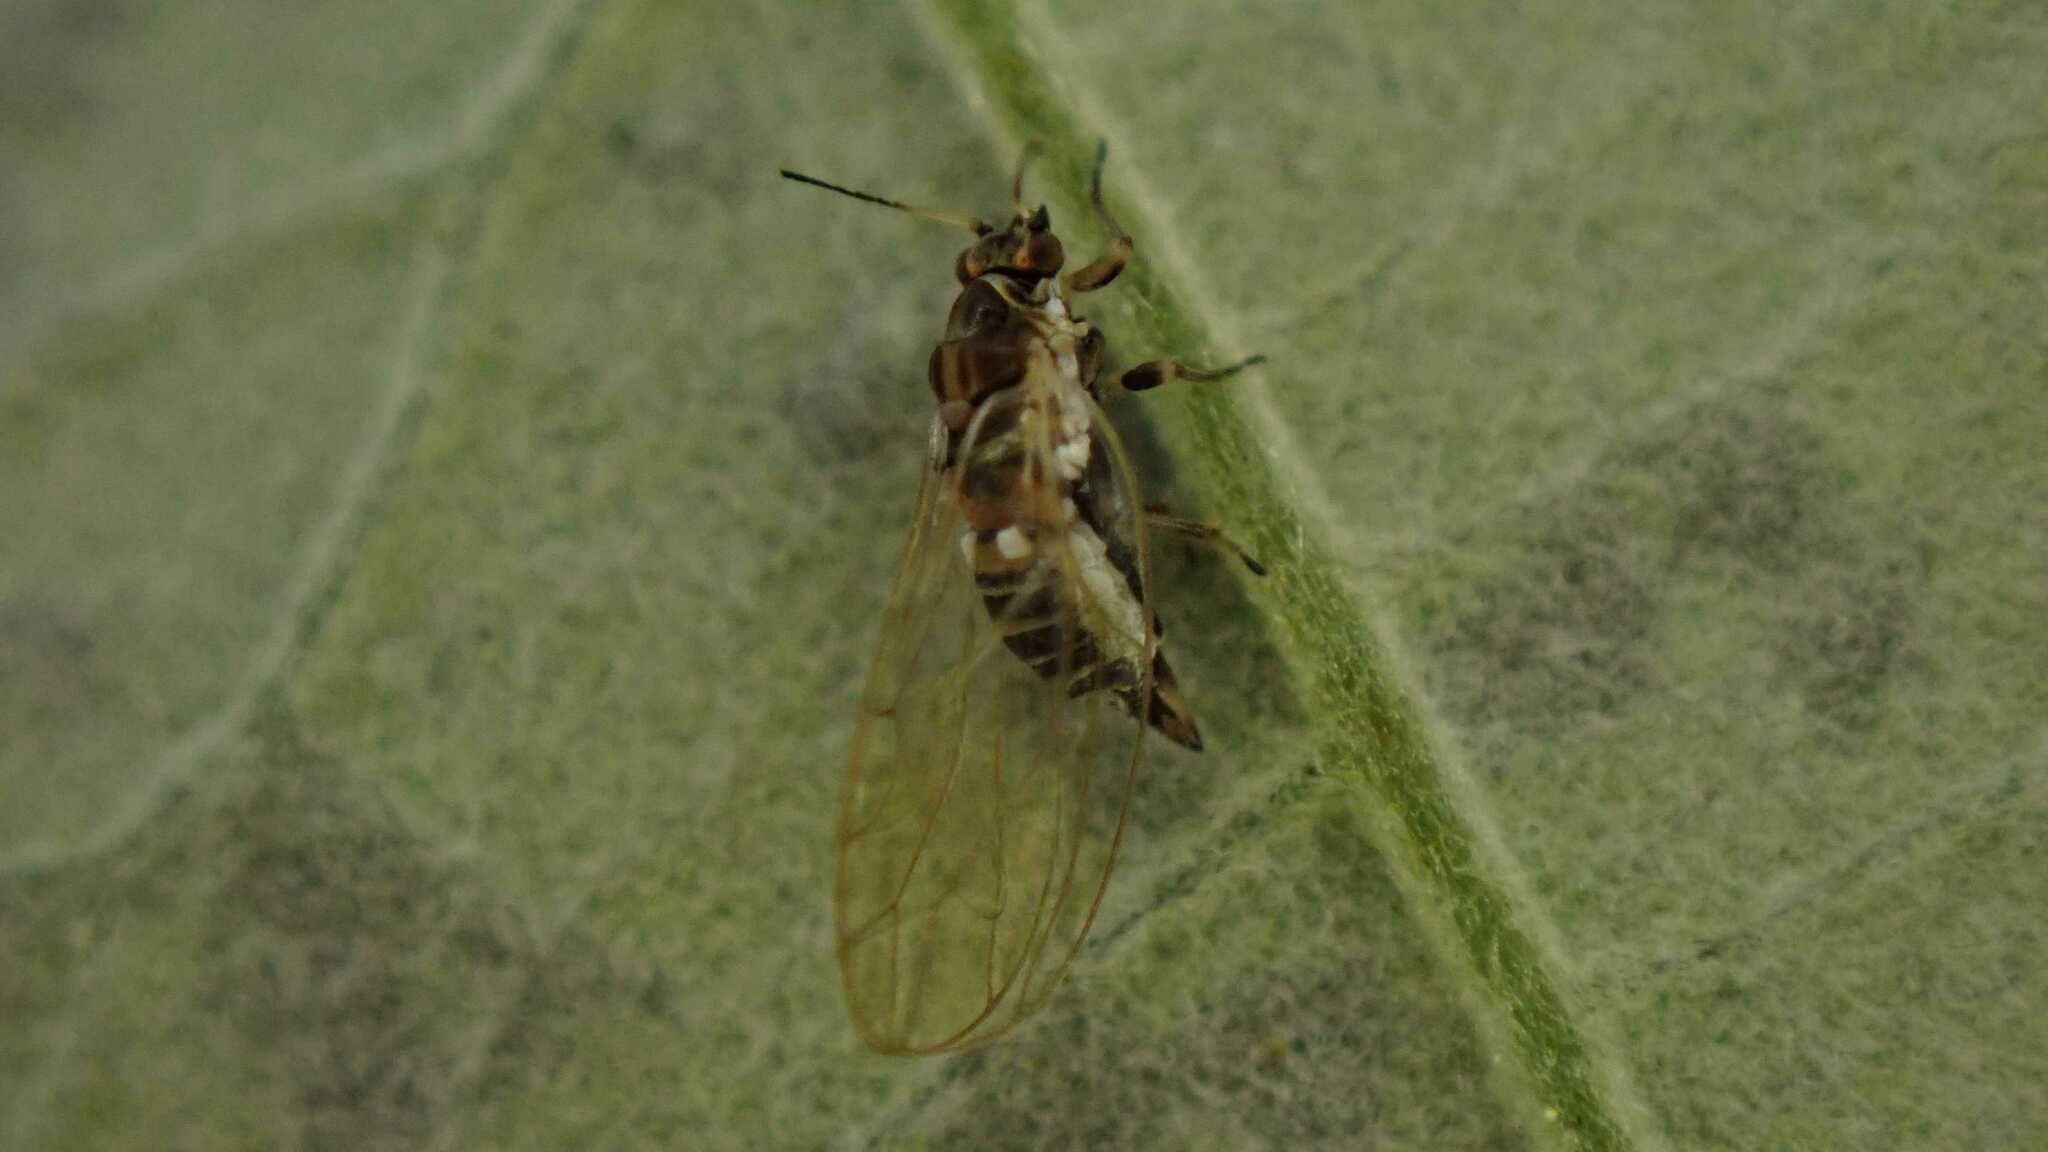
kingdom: Animalia
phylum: Arthropoda
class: Insecta
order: Hemiptera
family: Triozidae
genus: Trioza
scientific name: Trioza urticae
